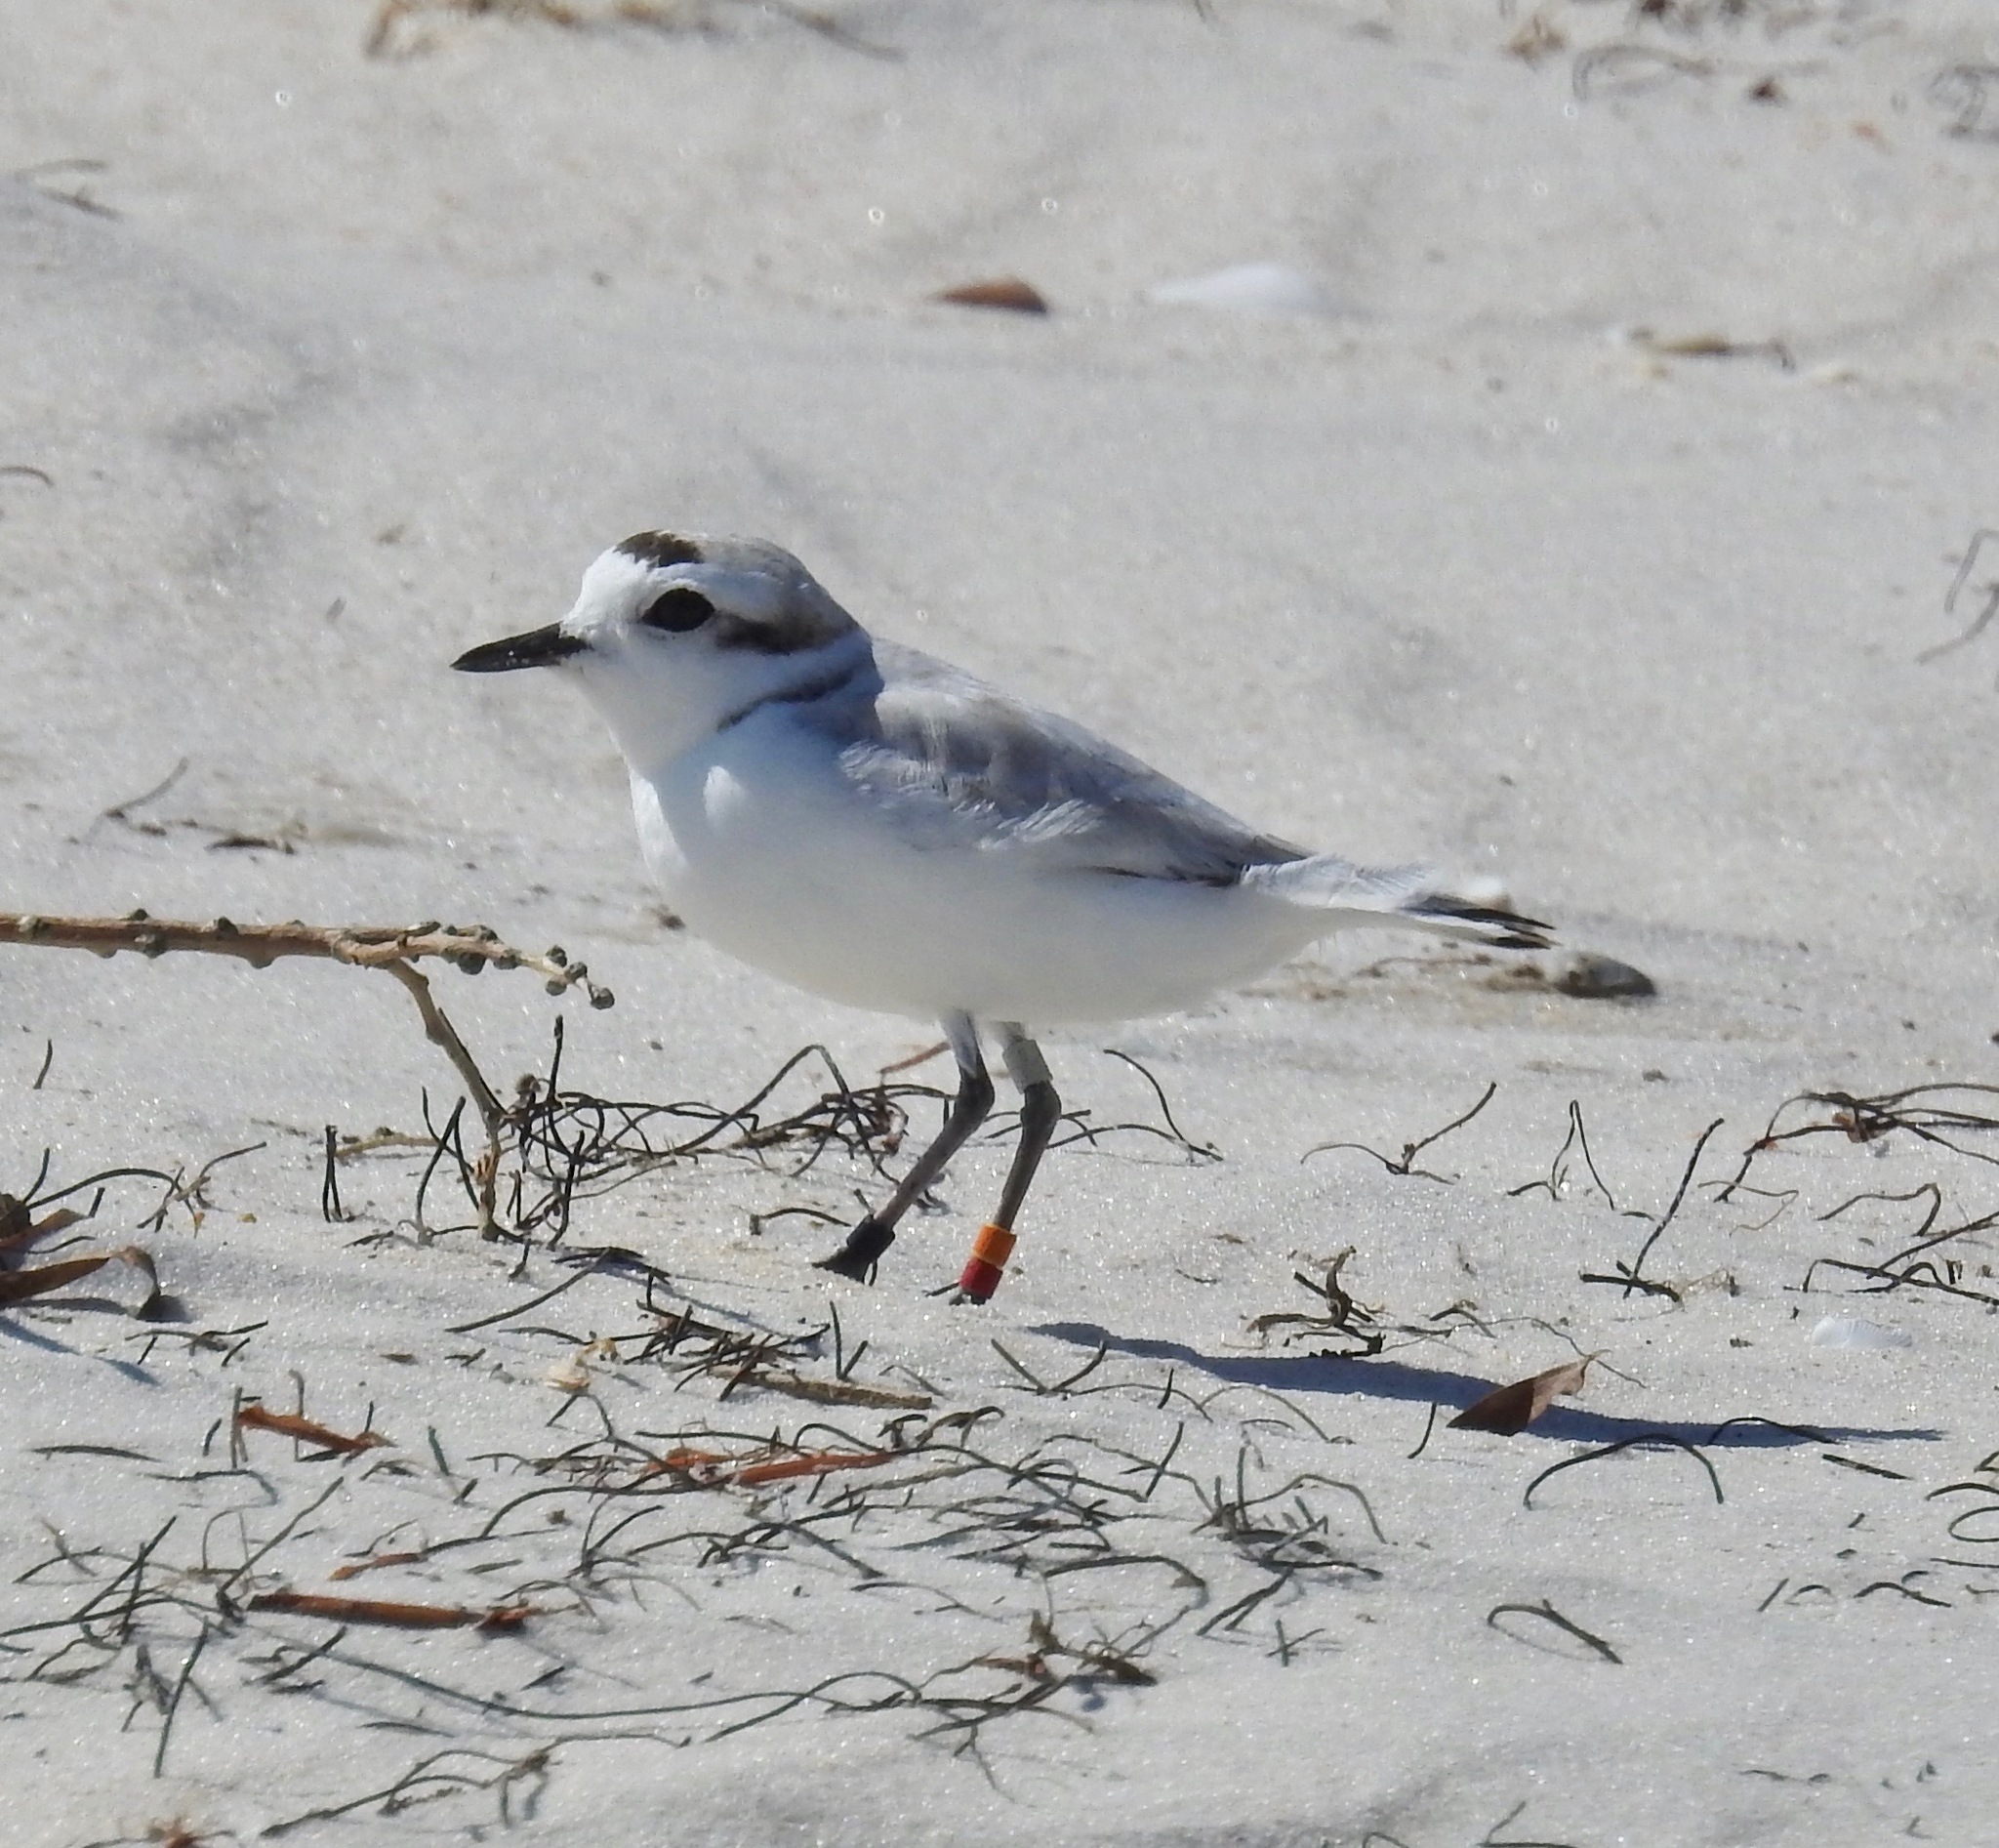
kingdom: Animalia
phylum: Chordata
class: Aves
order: Charadriiformes
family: Charadriidae
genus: Anarhynchus
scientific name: Anarhynchus
